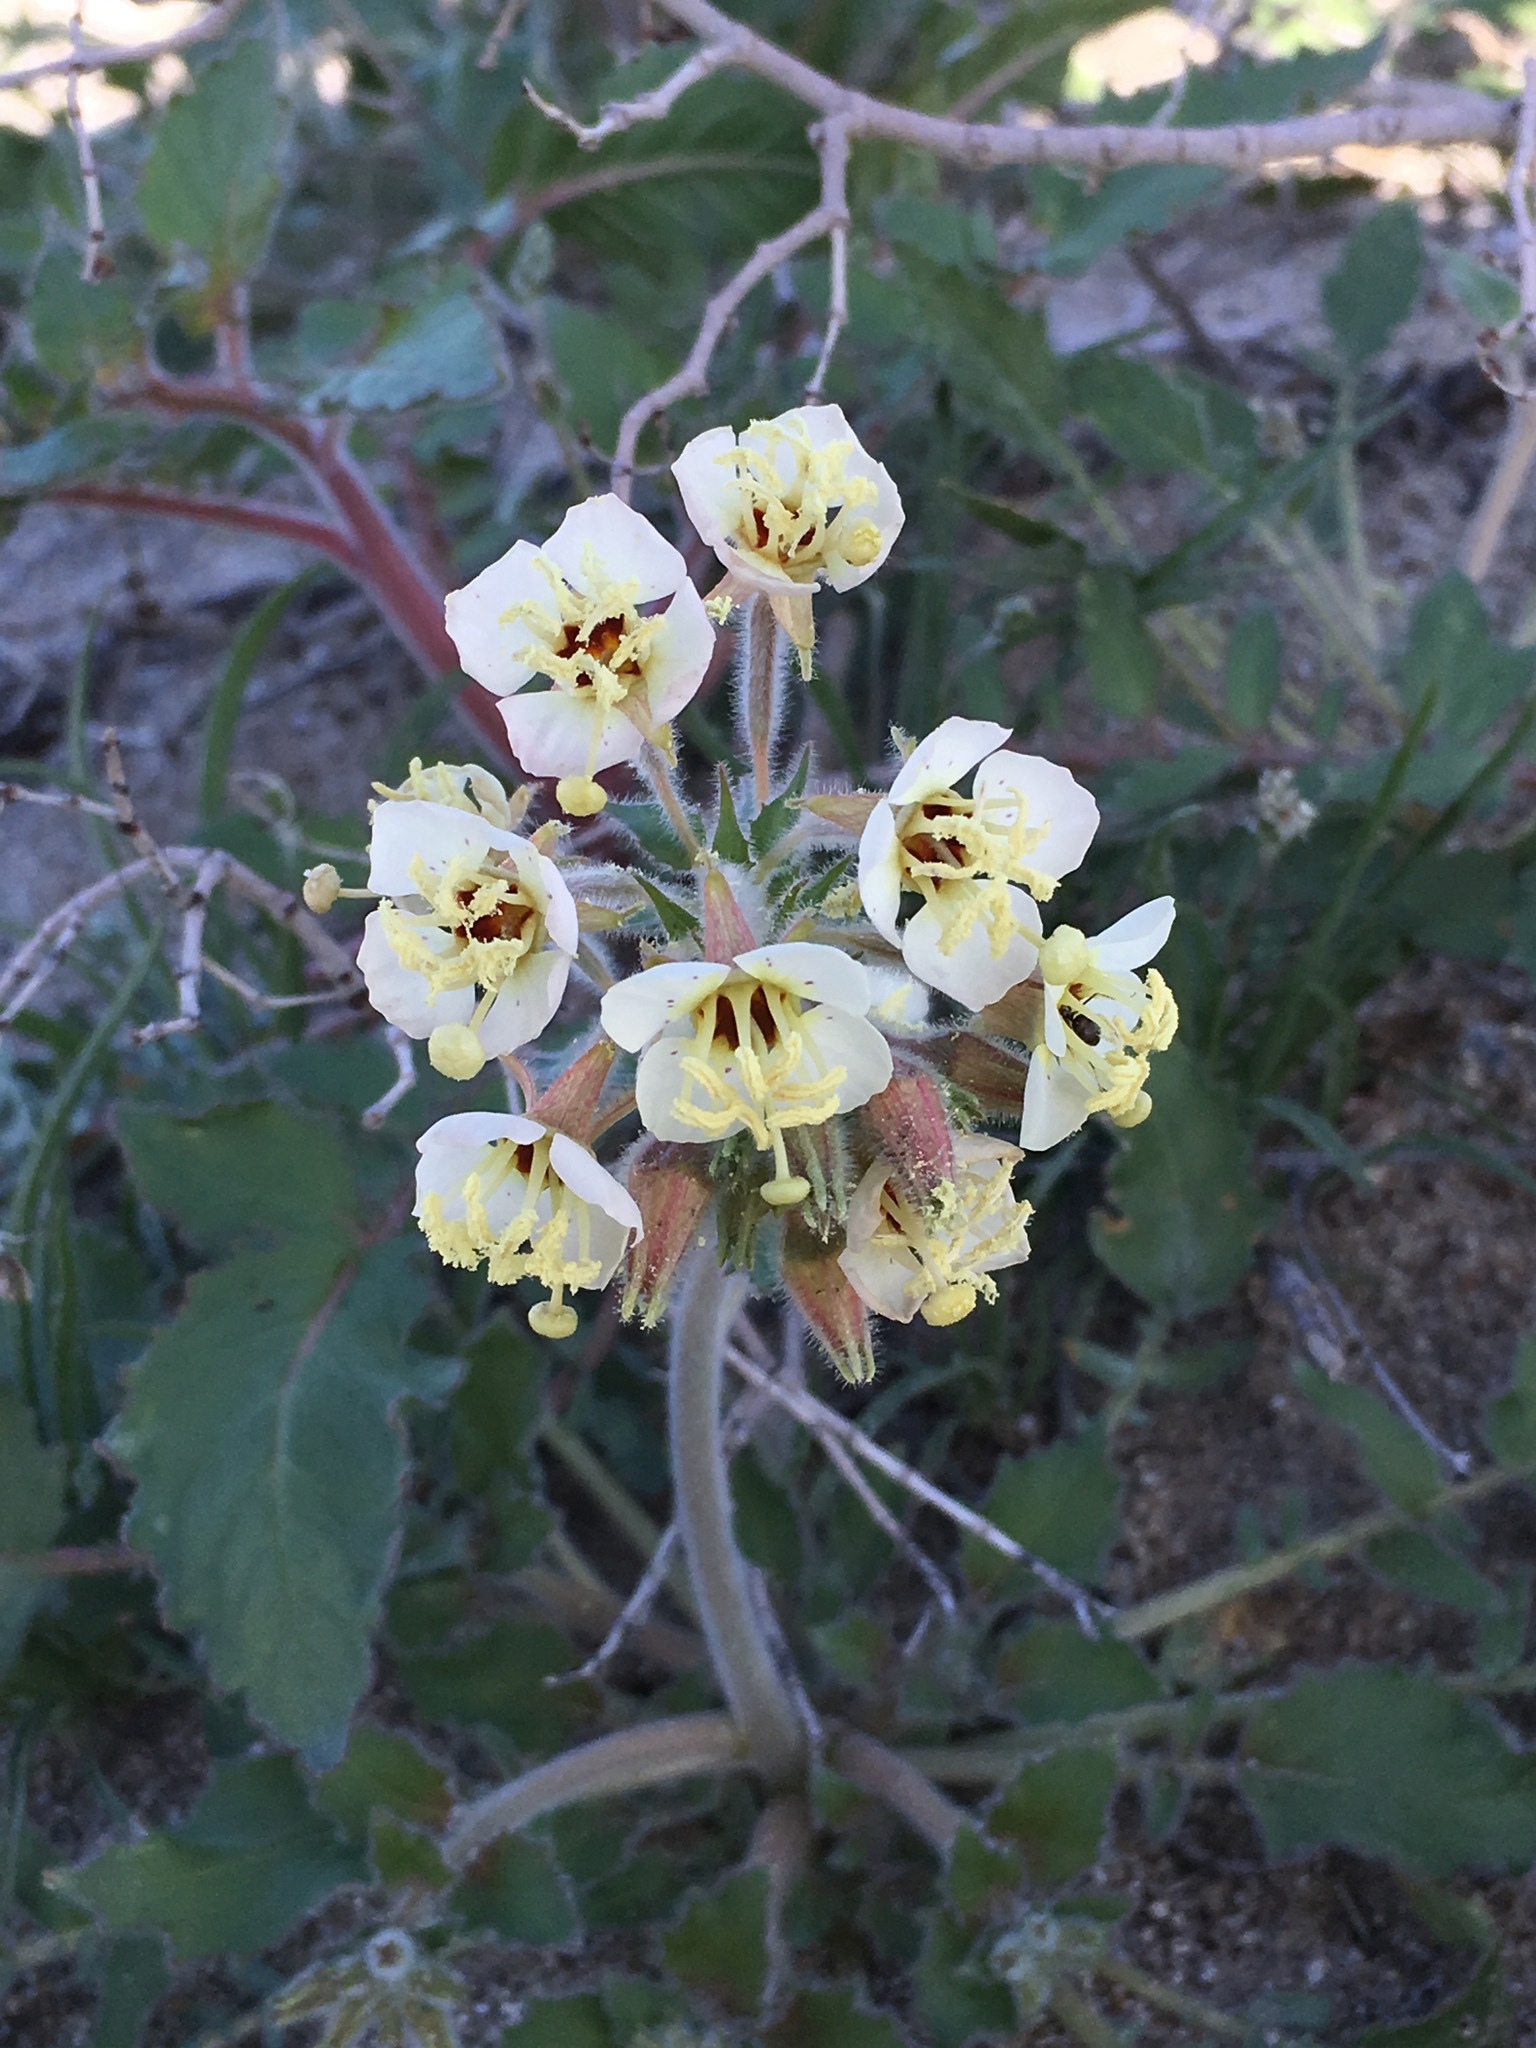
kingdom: Plantae
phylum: Tracheophyta
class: Magnoliopsida
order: Myrtales
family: Onagraceae
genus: Chylismia
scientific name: Chylismia claviformis
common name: Browneyes
